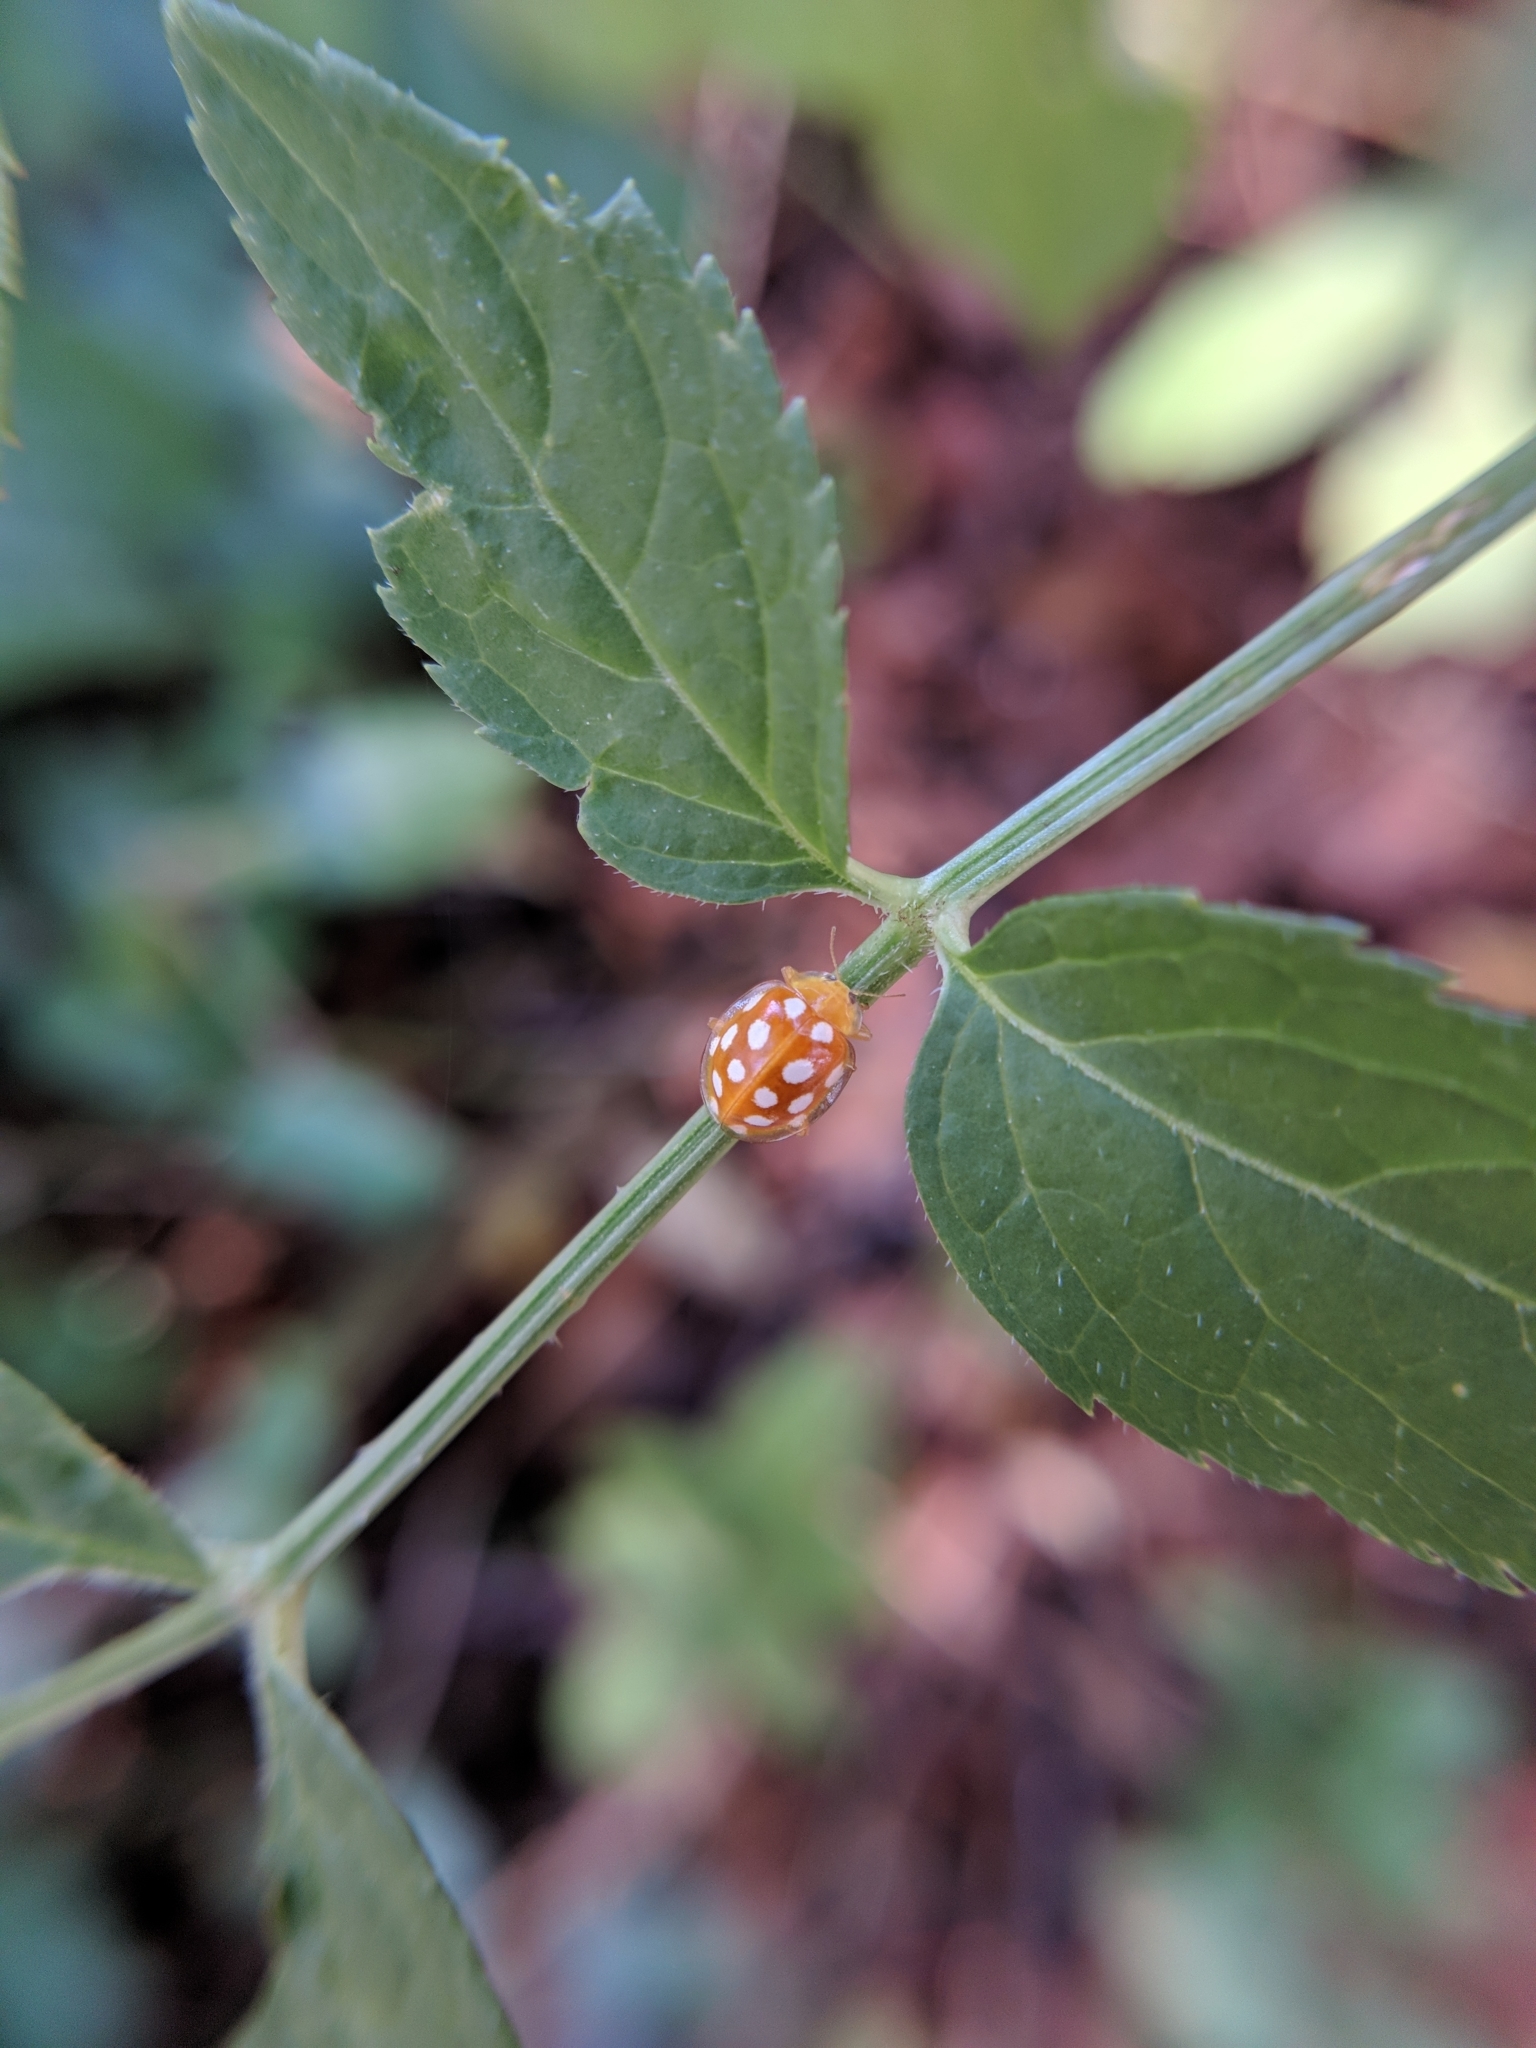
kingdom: Animalia
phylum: Arthropoda
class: Insecta
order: Coleoptera
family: Coccinellidae
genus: Halyzia
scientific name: Halyzia sedecimguttata
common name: Orange ladybird
